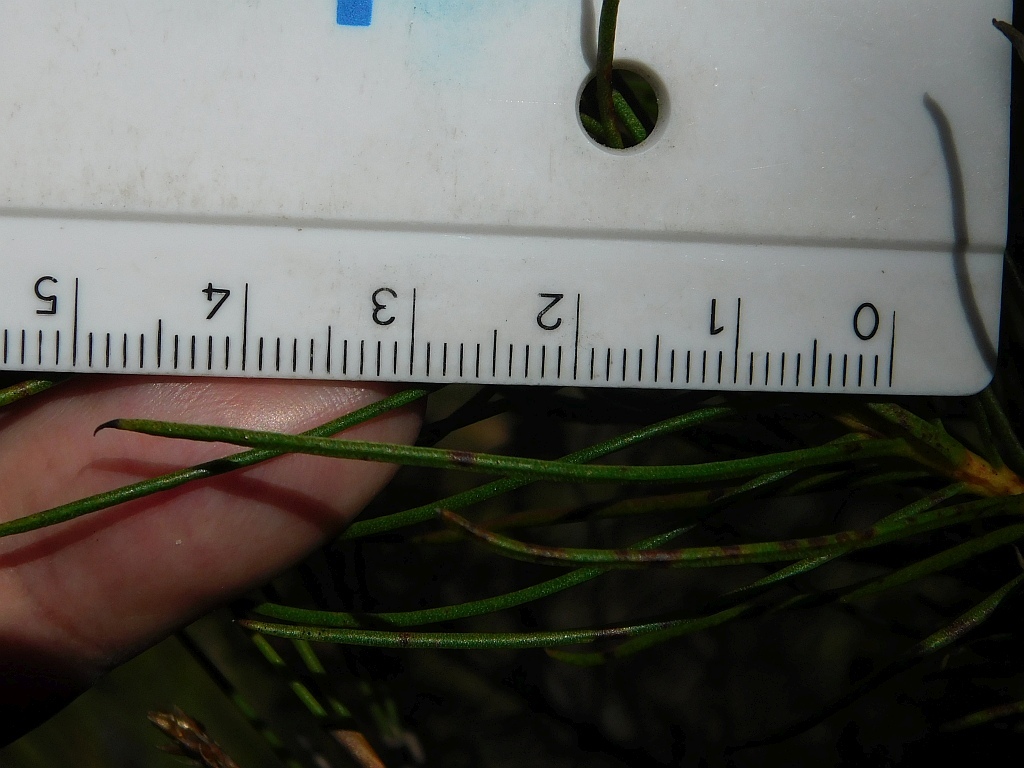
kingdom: Plantae
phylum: Tracheophyta
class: Magnoliopsida
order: Proteales
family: Proteaceae
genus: Protea
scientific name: Protea subulifolia
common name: Awl-leaf sugarbush
